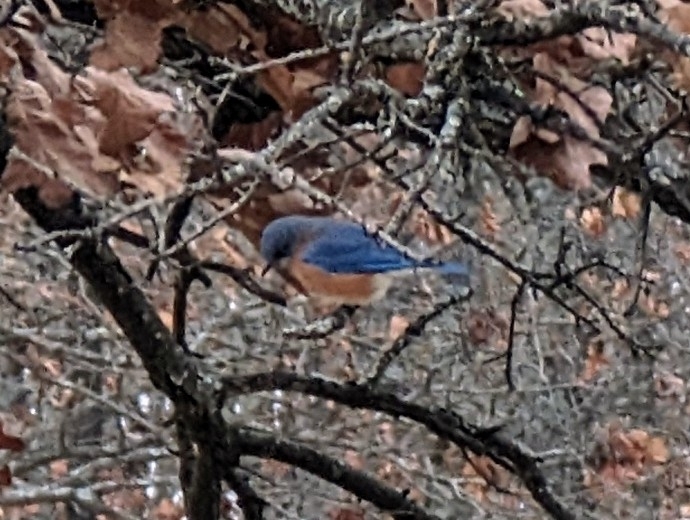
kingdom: Animalia
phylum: Chordata
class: Aves
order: Passeriformes
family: Turdidae
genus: Sialia
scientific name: Sialia sialis
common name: Eastern bluebird
